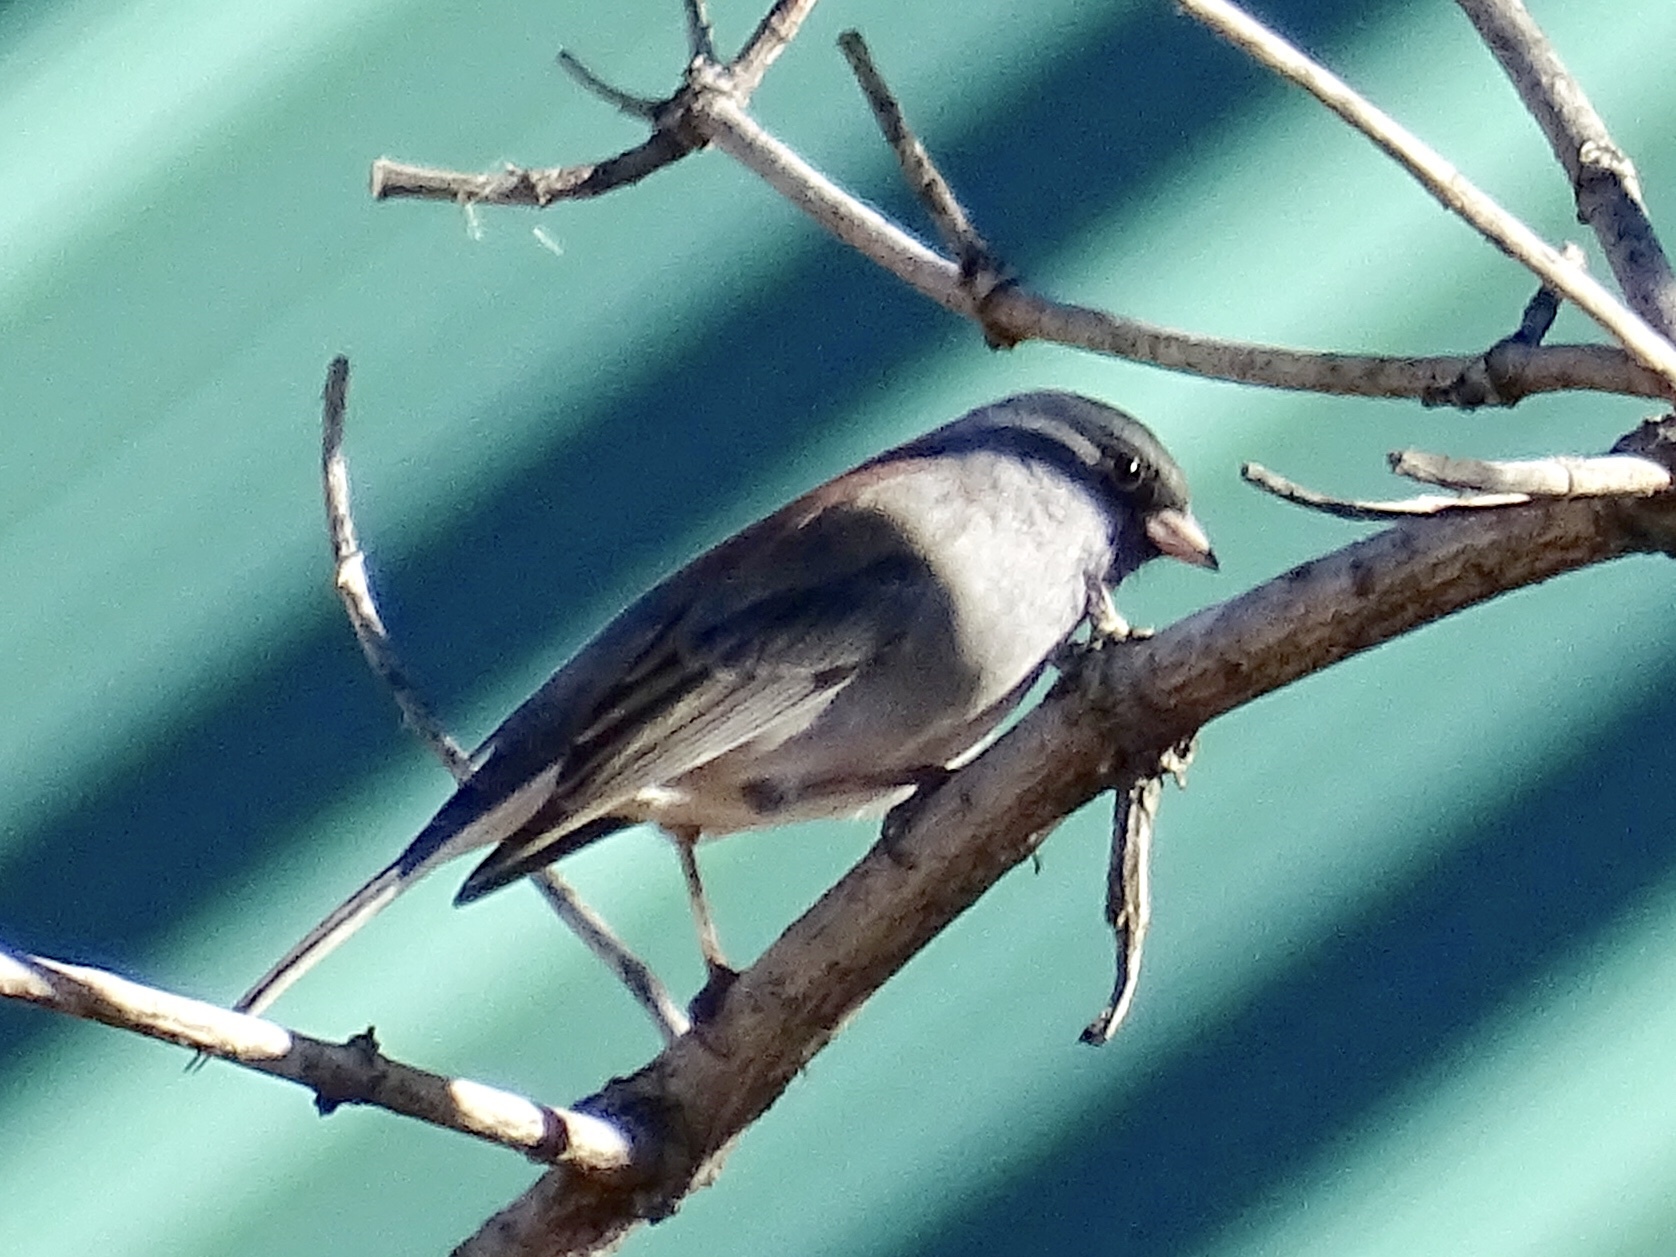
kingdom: Animalia
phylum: Chordata
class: Aves
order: Passeriformes
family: Passerellidae
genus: Junco
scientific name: Junco hyemalis
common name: Dark-eyed junco
